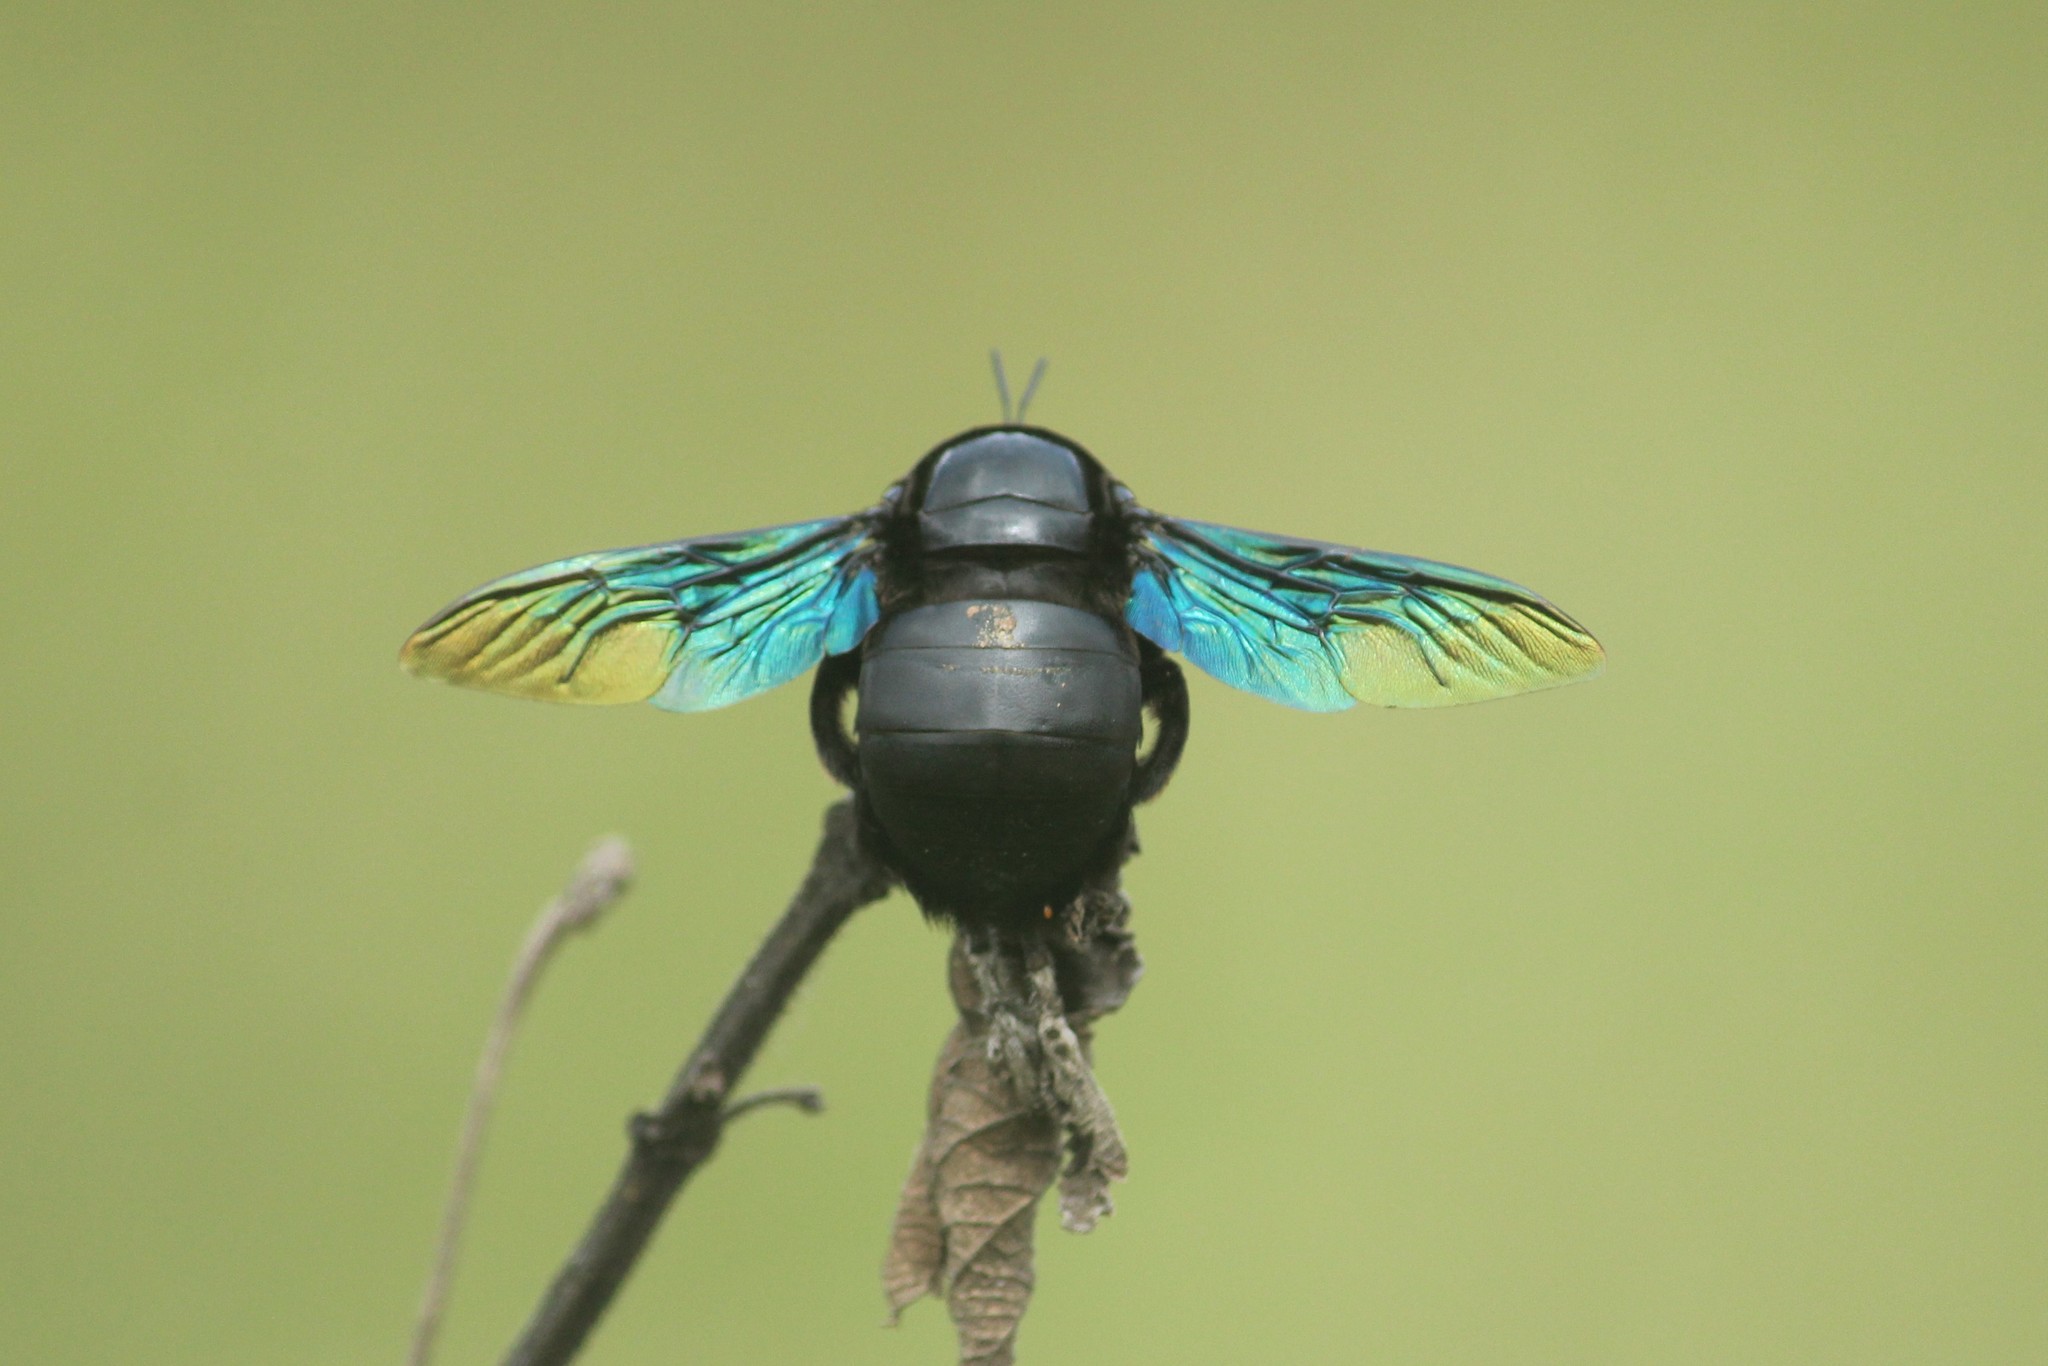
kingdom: Animalia
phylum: Arthropoda
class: Insecta
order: Hymenoptera
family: Apidae
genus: Xylocopa
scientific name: Xylocopa tenuiscapa
